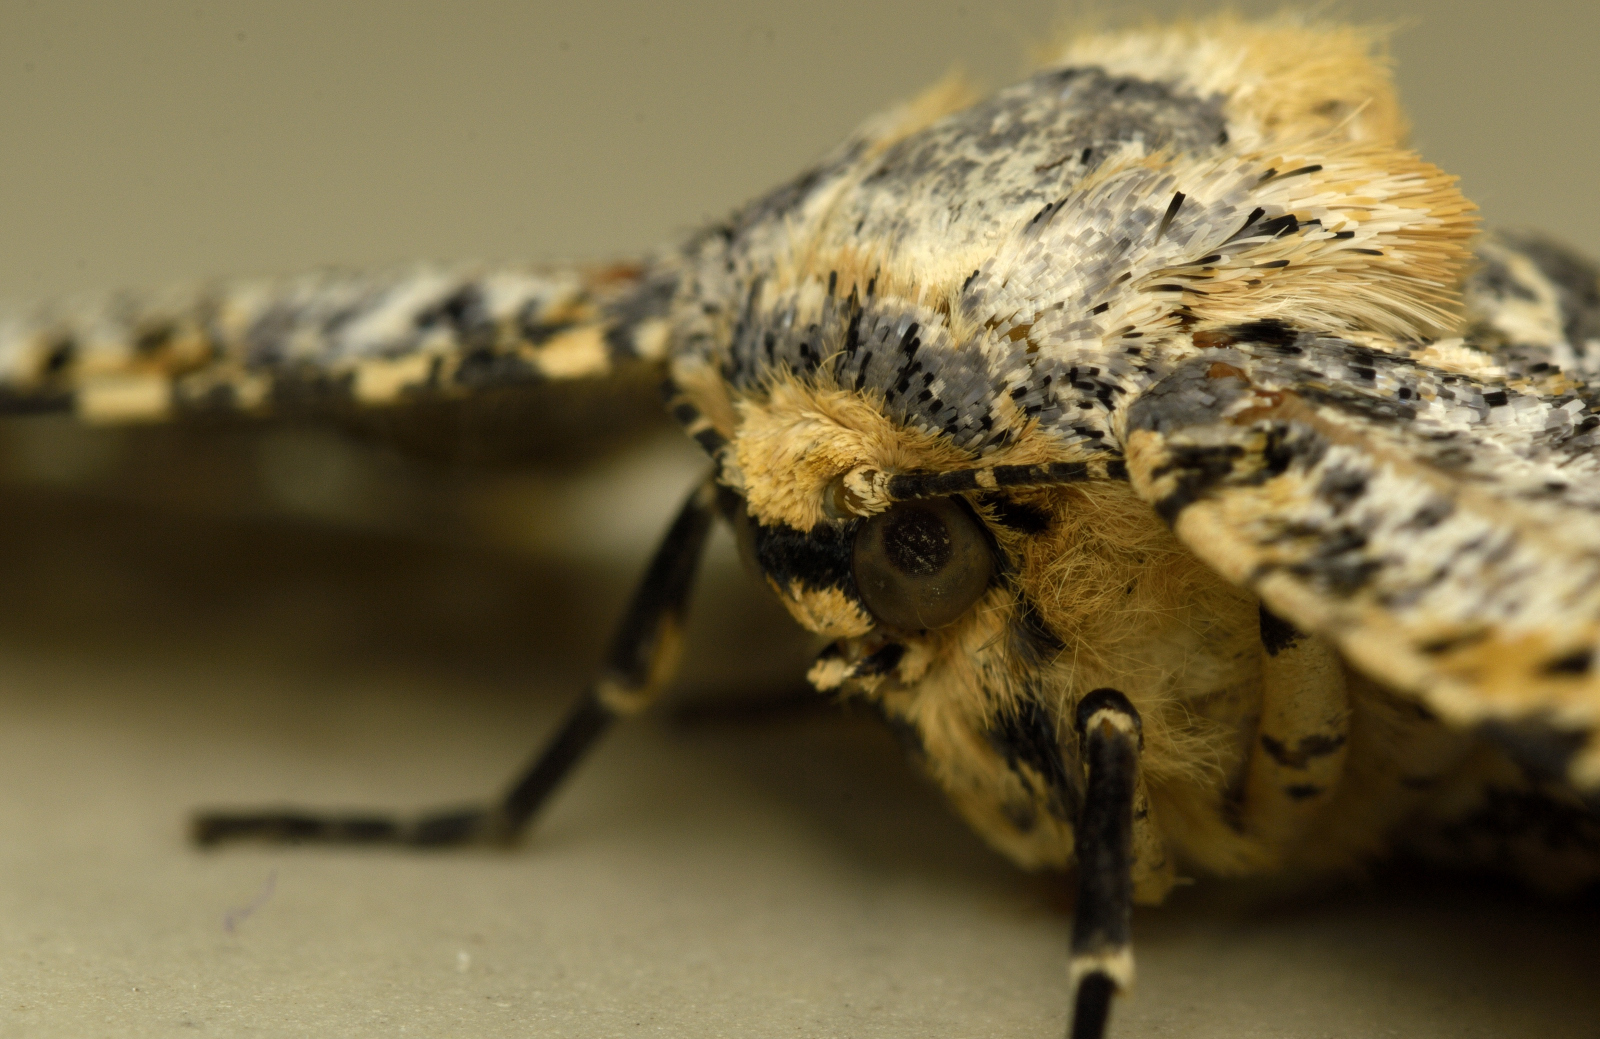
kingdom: Animalia
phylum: Arthropoda
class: Insecta
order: Lepidoptera
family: Geometridae
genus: Biston
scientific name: Biston suppressaria
